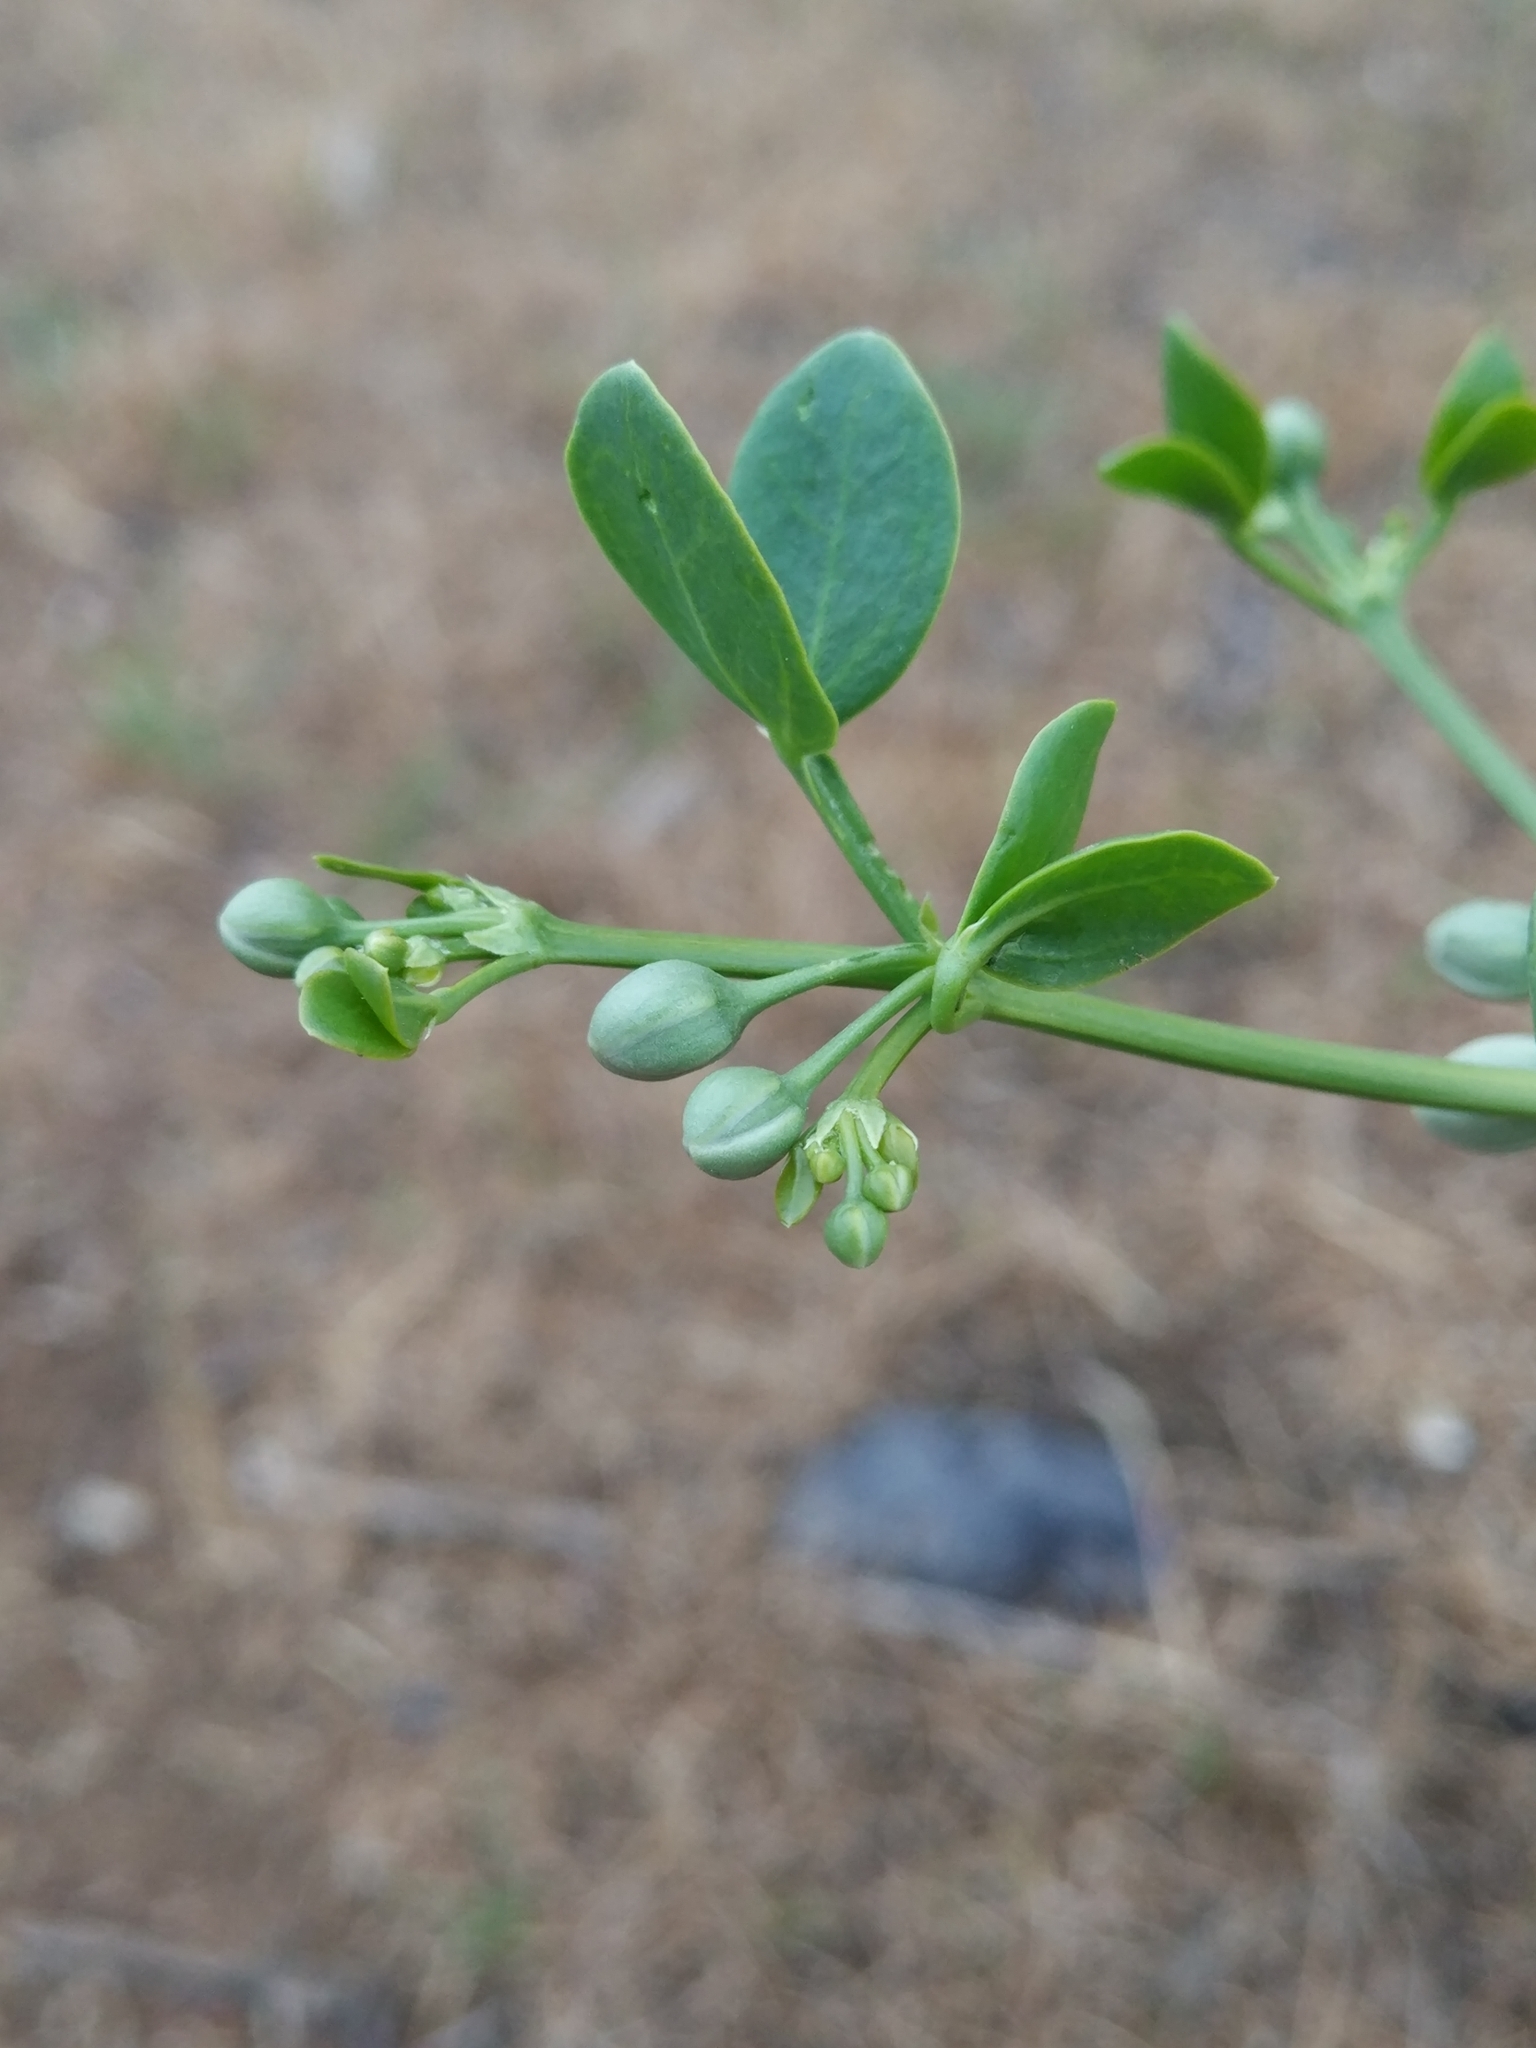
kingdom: Plantae
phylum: Tracheophyta
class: Magnoliopsida
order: Zygophyllales
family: Zygophyllaceae
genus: Zygophyllum
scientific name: Zygophyllum fabago
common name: Syrian beancaper
